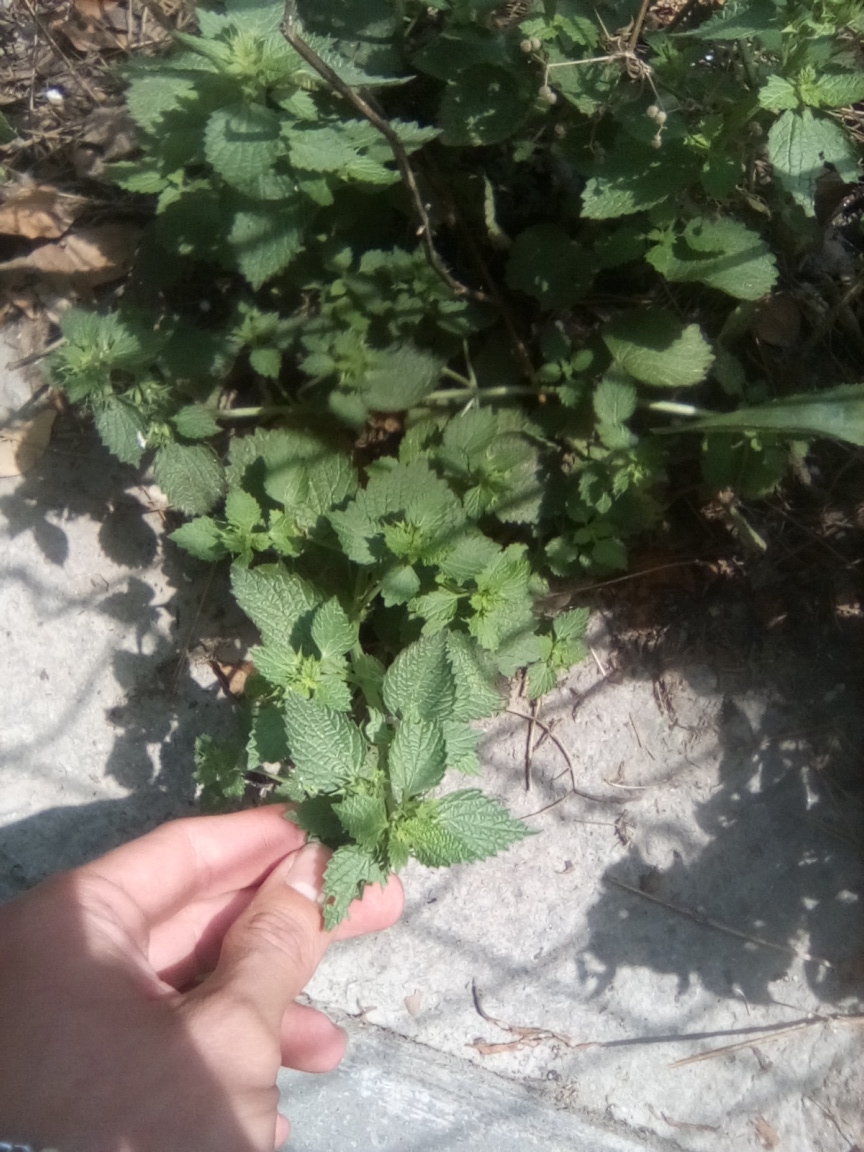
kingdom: Plantae
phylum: Tracheophyta
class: Magnoliopsida
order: Lamiales
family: Lamiaceae
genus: Ballota
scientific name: Ballota nigra
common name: Black horehound
